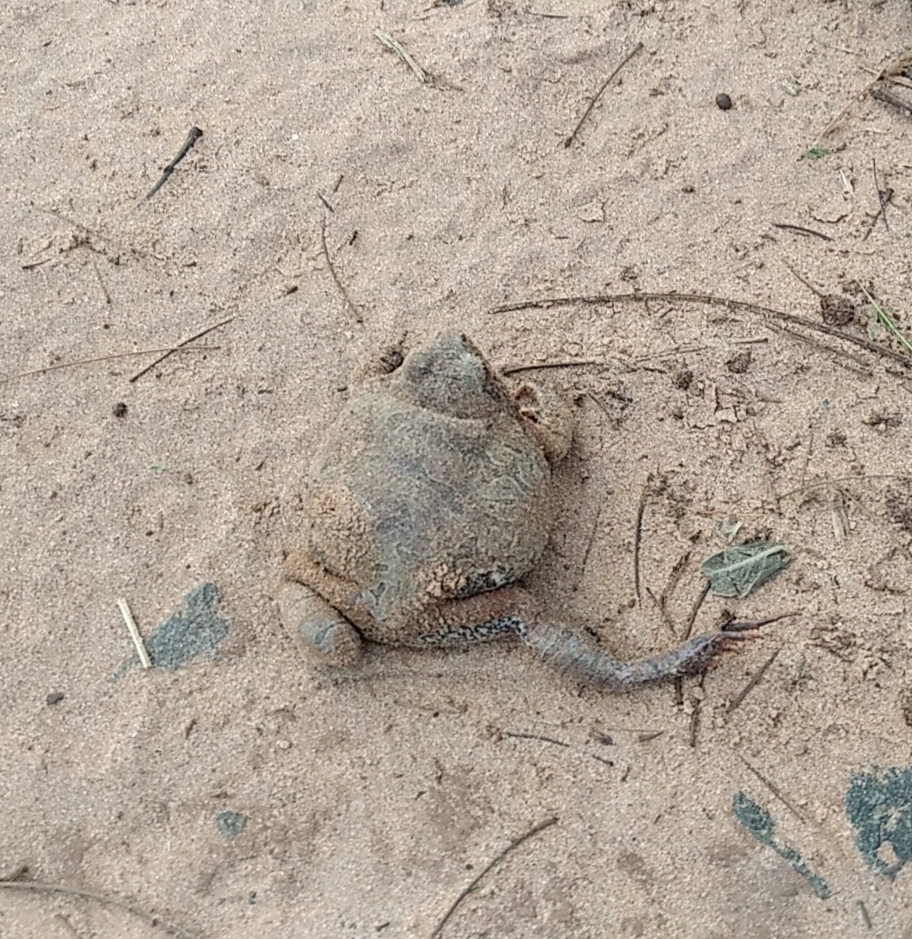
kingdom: Animalia
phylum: Chordata
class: Amphibia
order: Anura
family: Leptodactylidae
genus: Physalaemus
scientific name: Physalaemus nattereri
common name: Cuyaba dwarf frog
